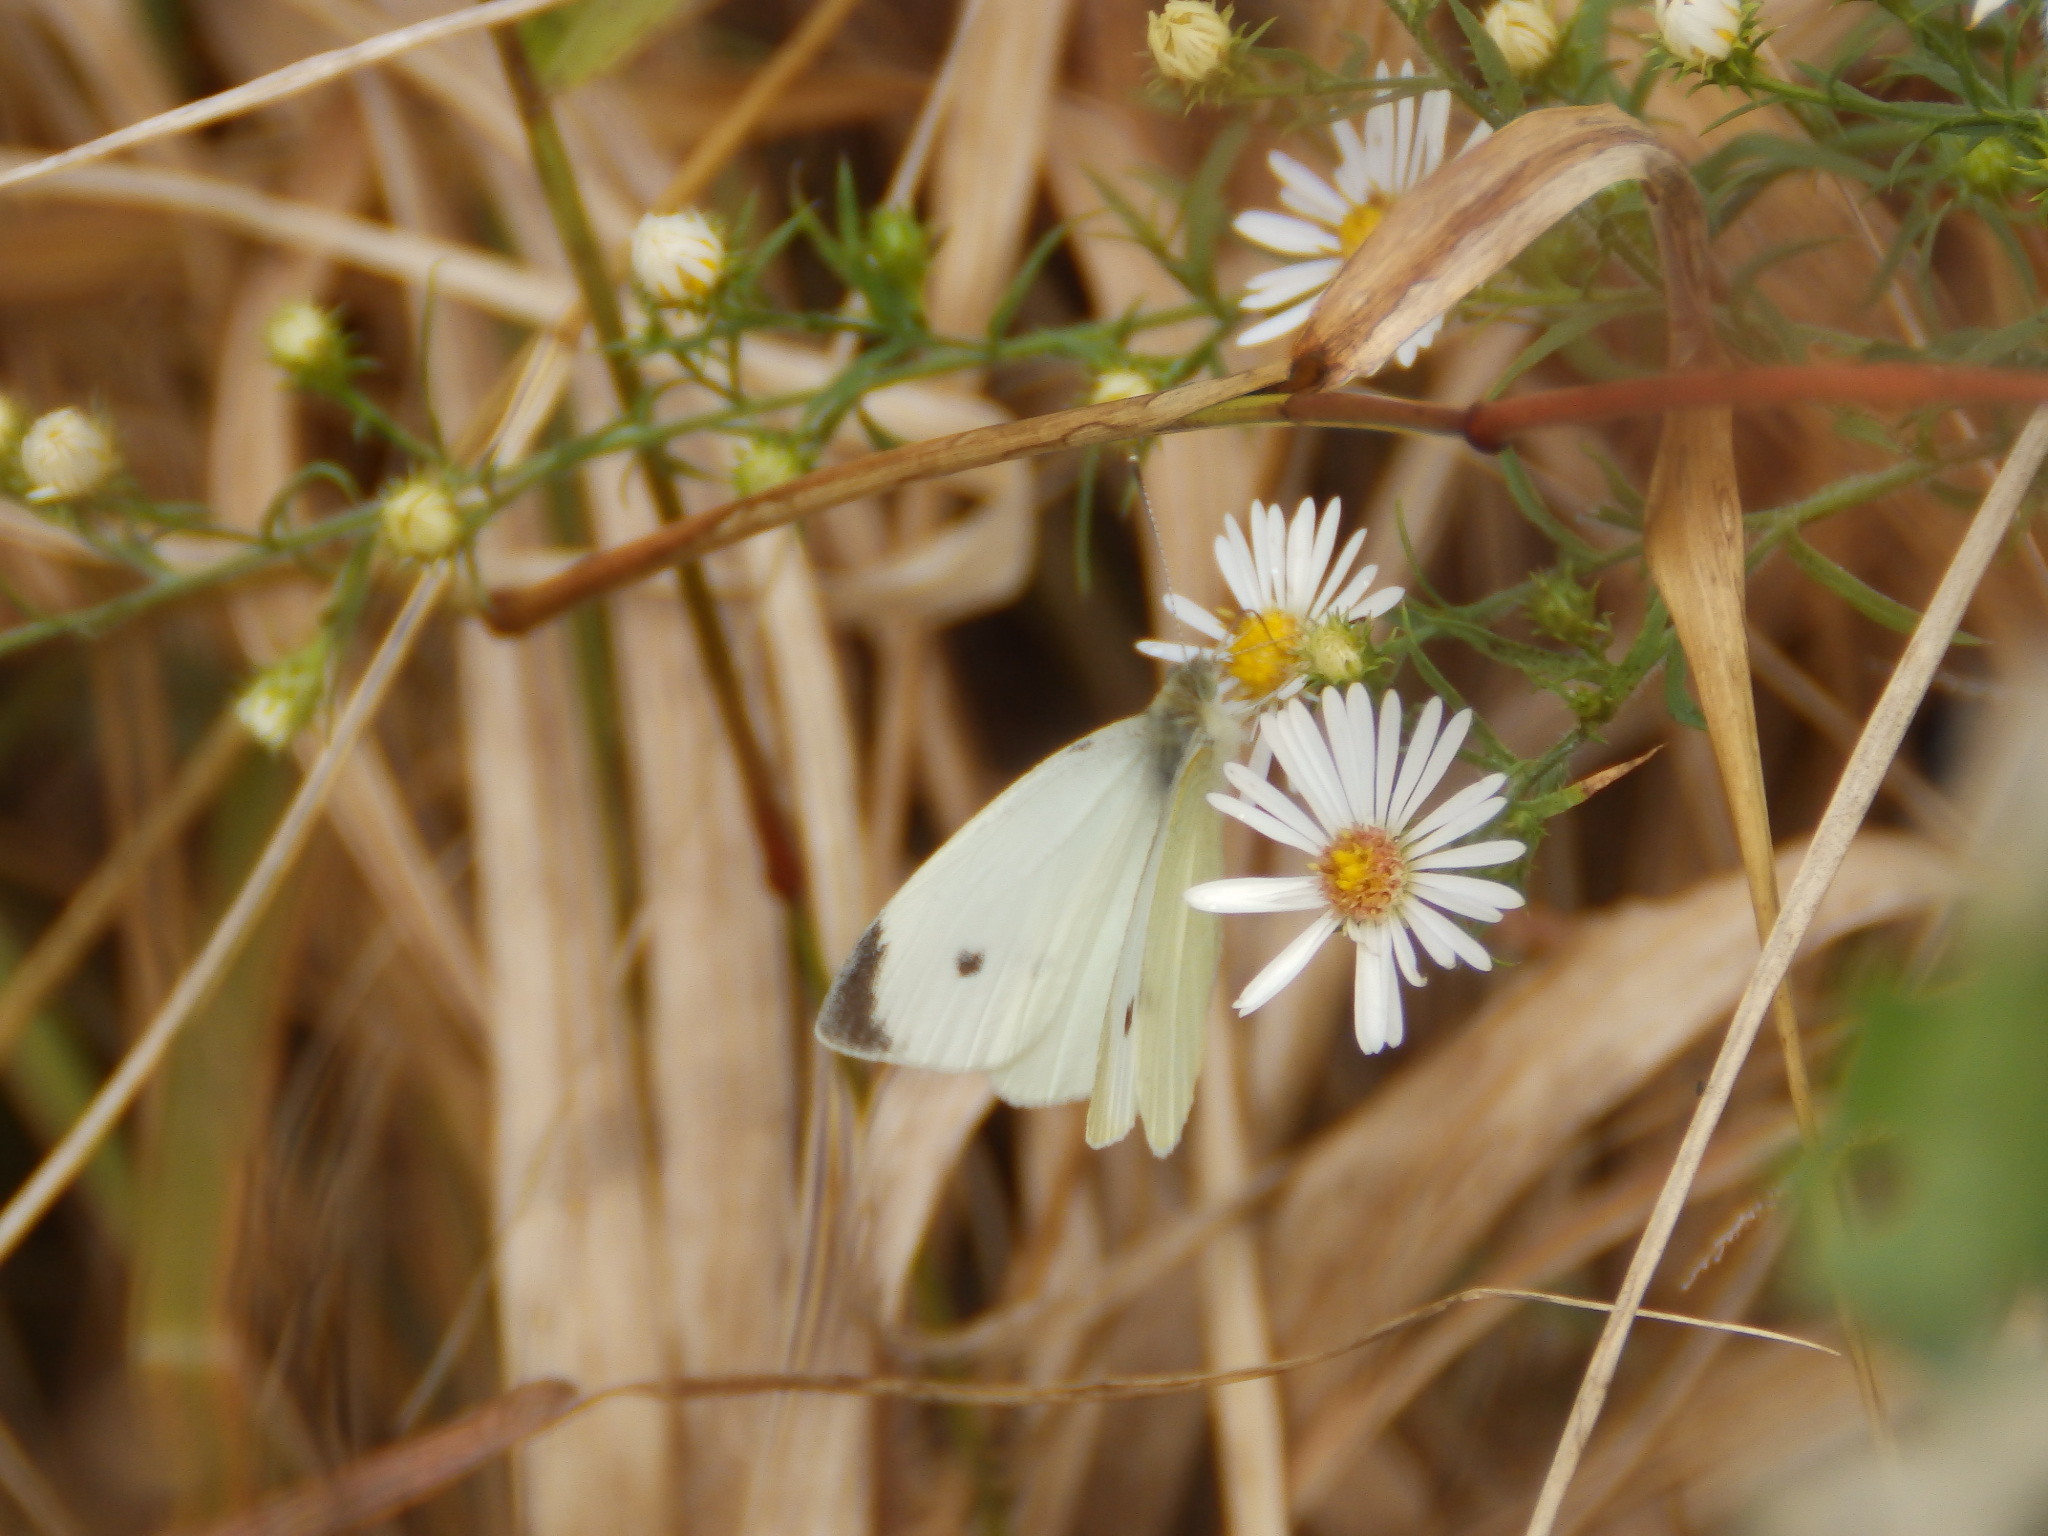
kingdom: Animalia
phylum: Arthropoda
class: Insecta
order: Lepidoptera
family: Pieridae
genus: Pieris
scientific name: Pieris rapae
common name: Small white
